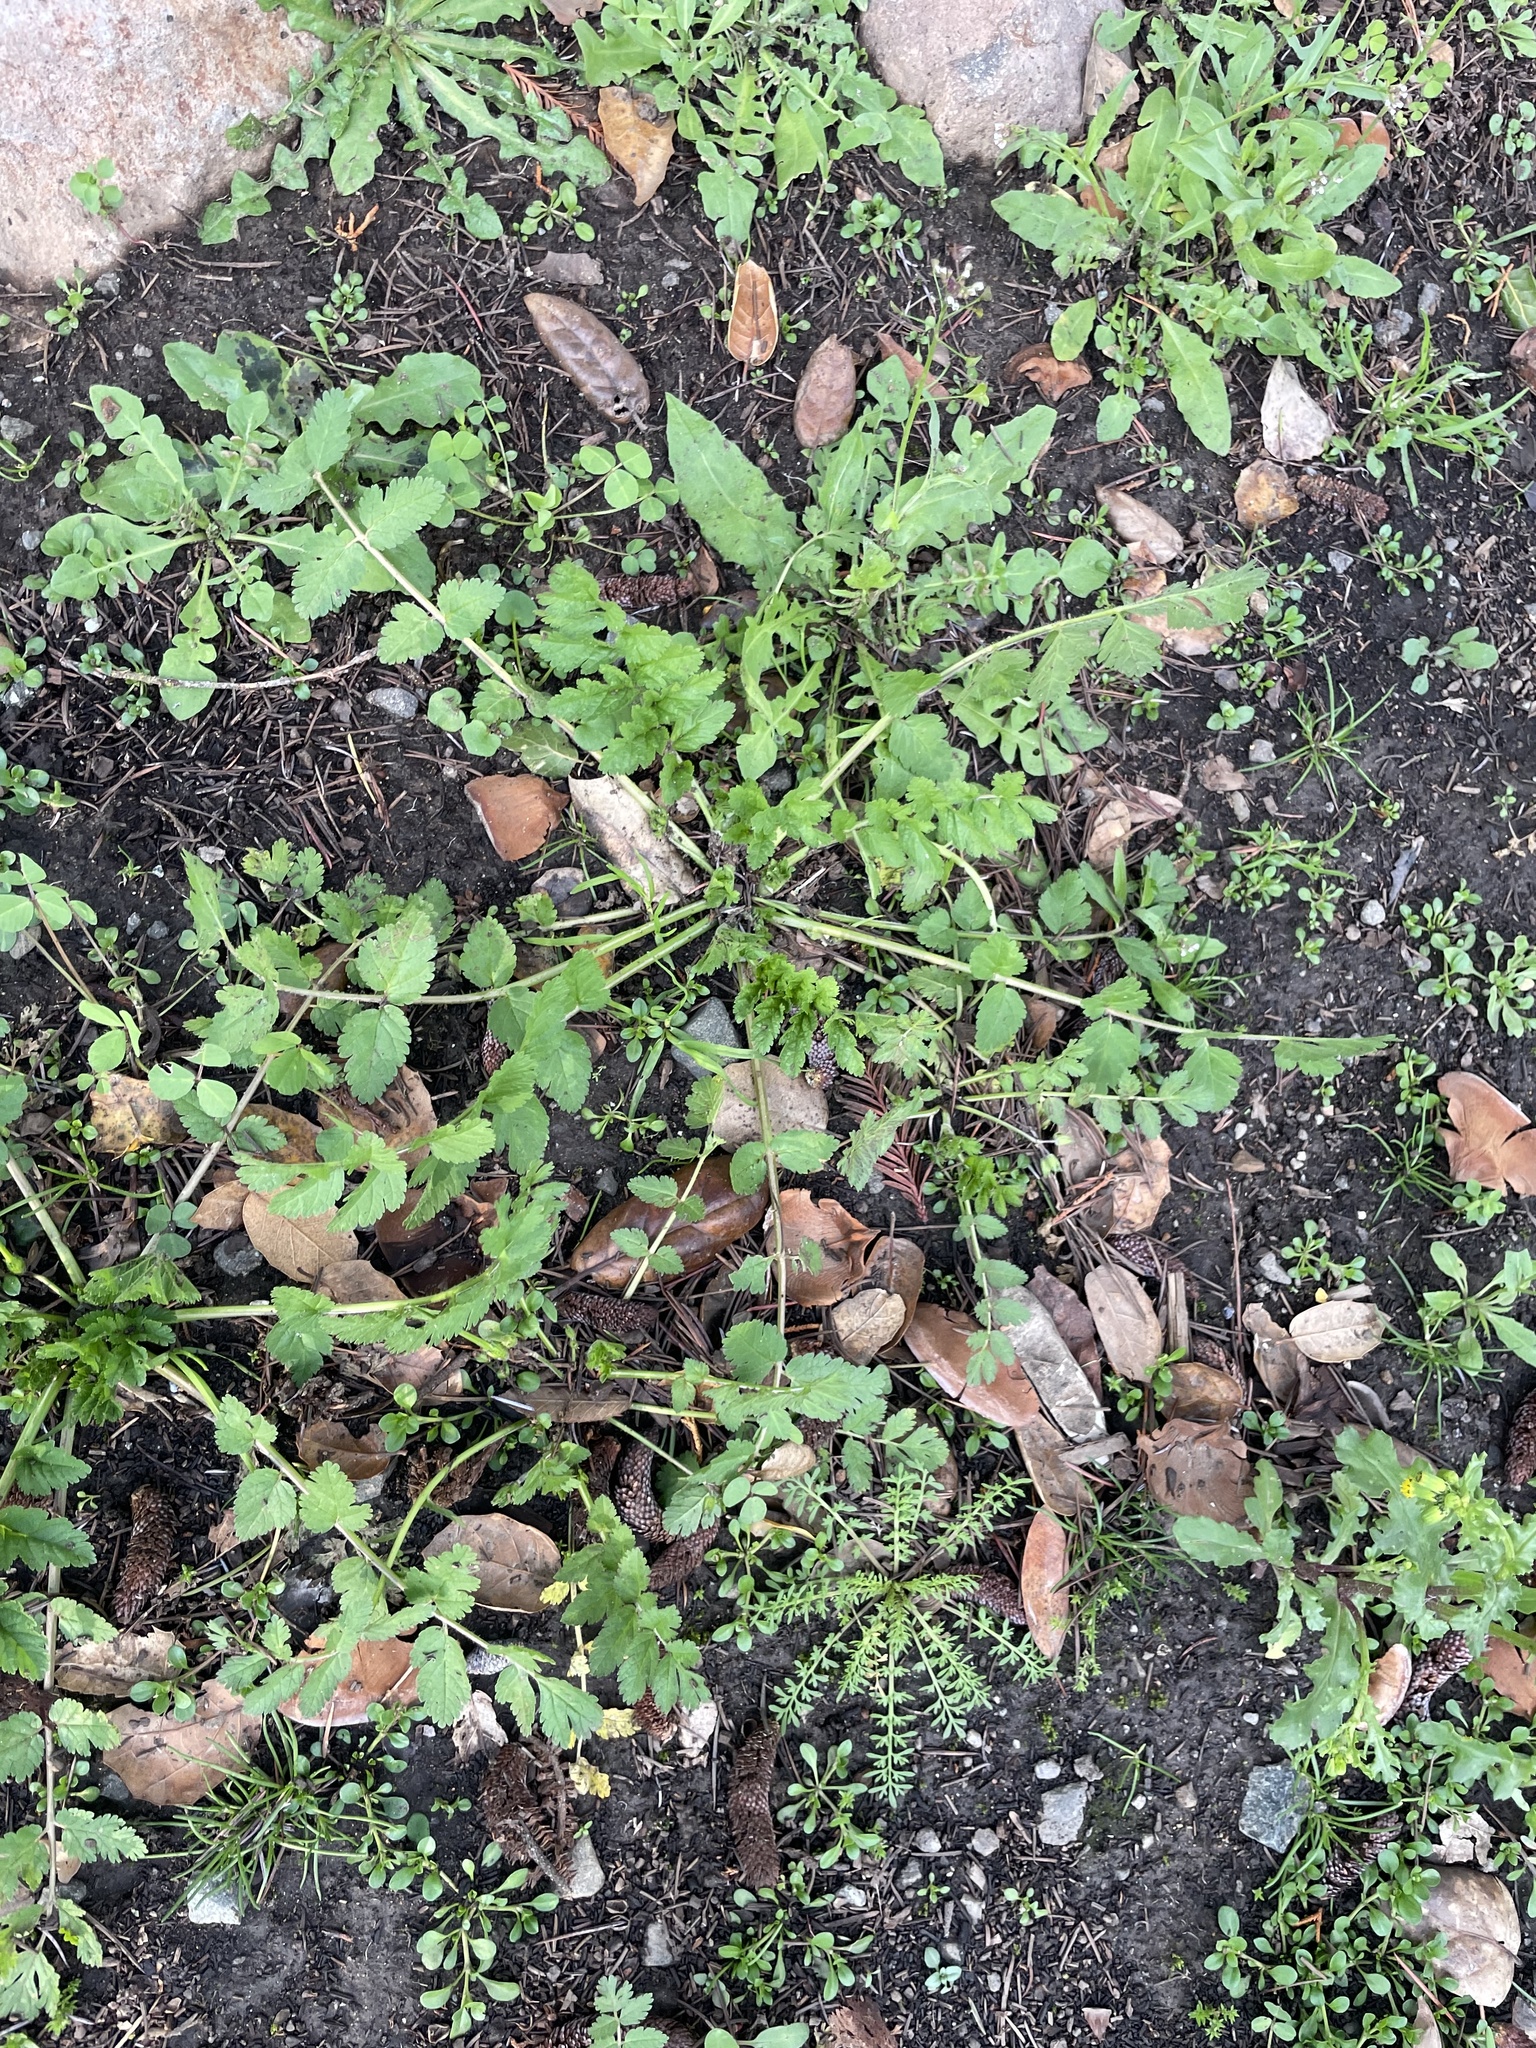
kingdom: Plantae
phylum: Tracheophyta
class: Magnoliopsida
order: Geraniales
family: Geraniaceae
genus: Erodium
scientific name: Erodium moschatum
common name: Musk stork's-bill
